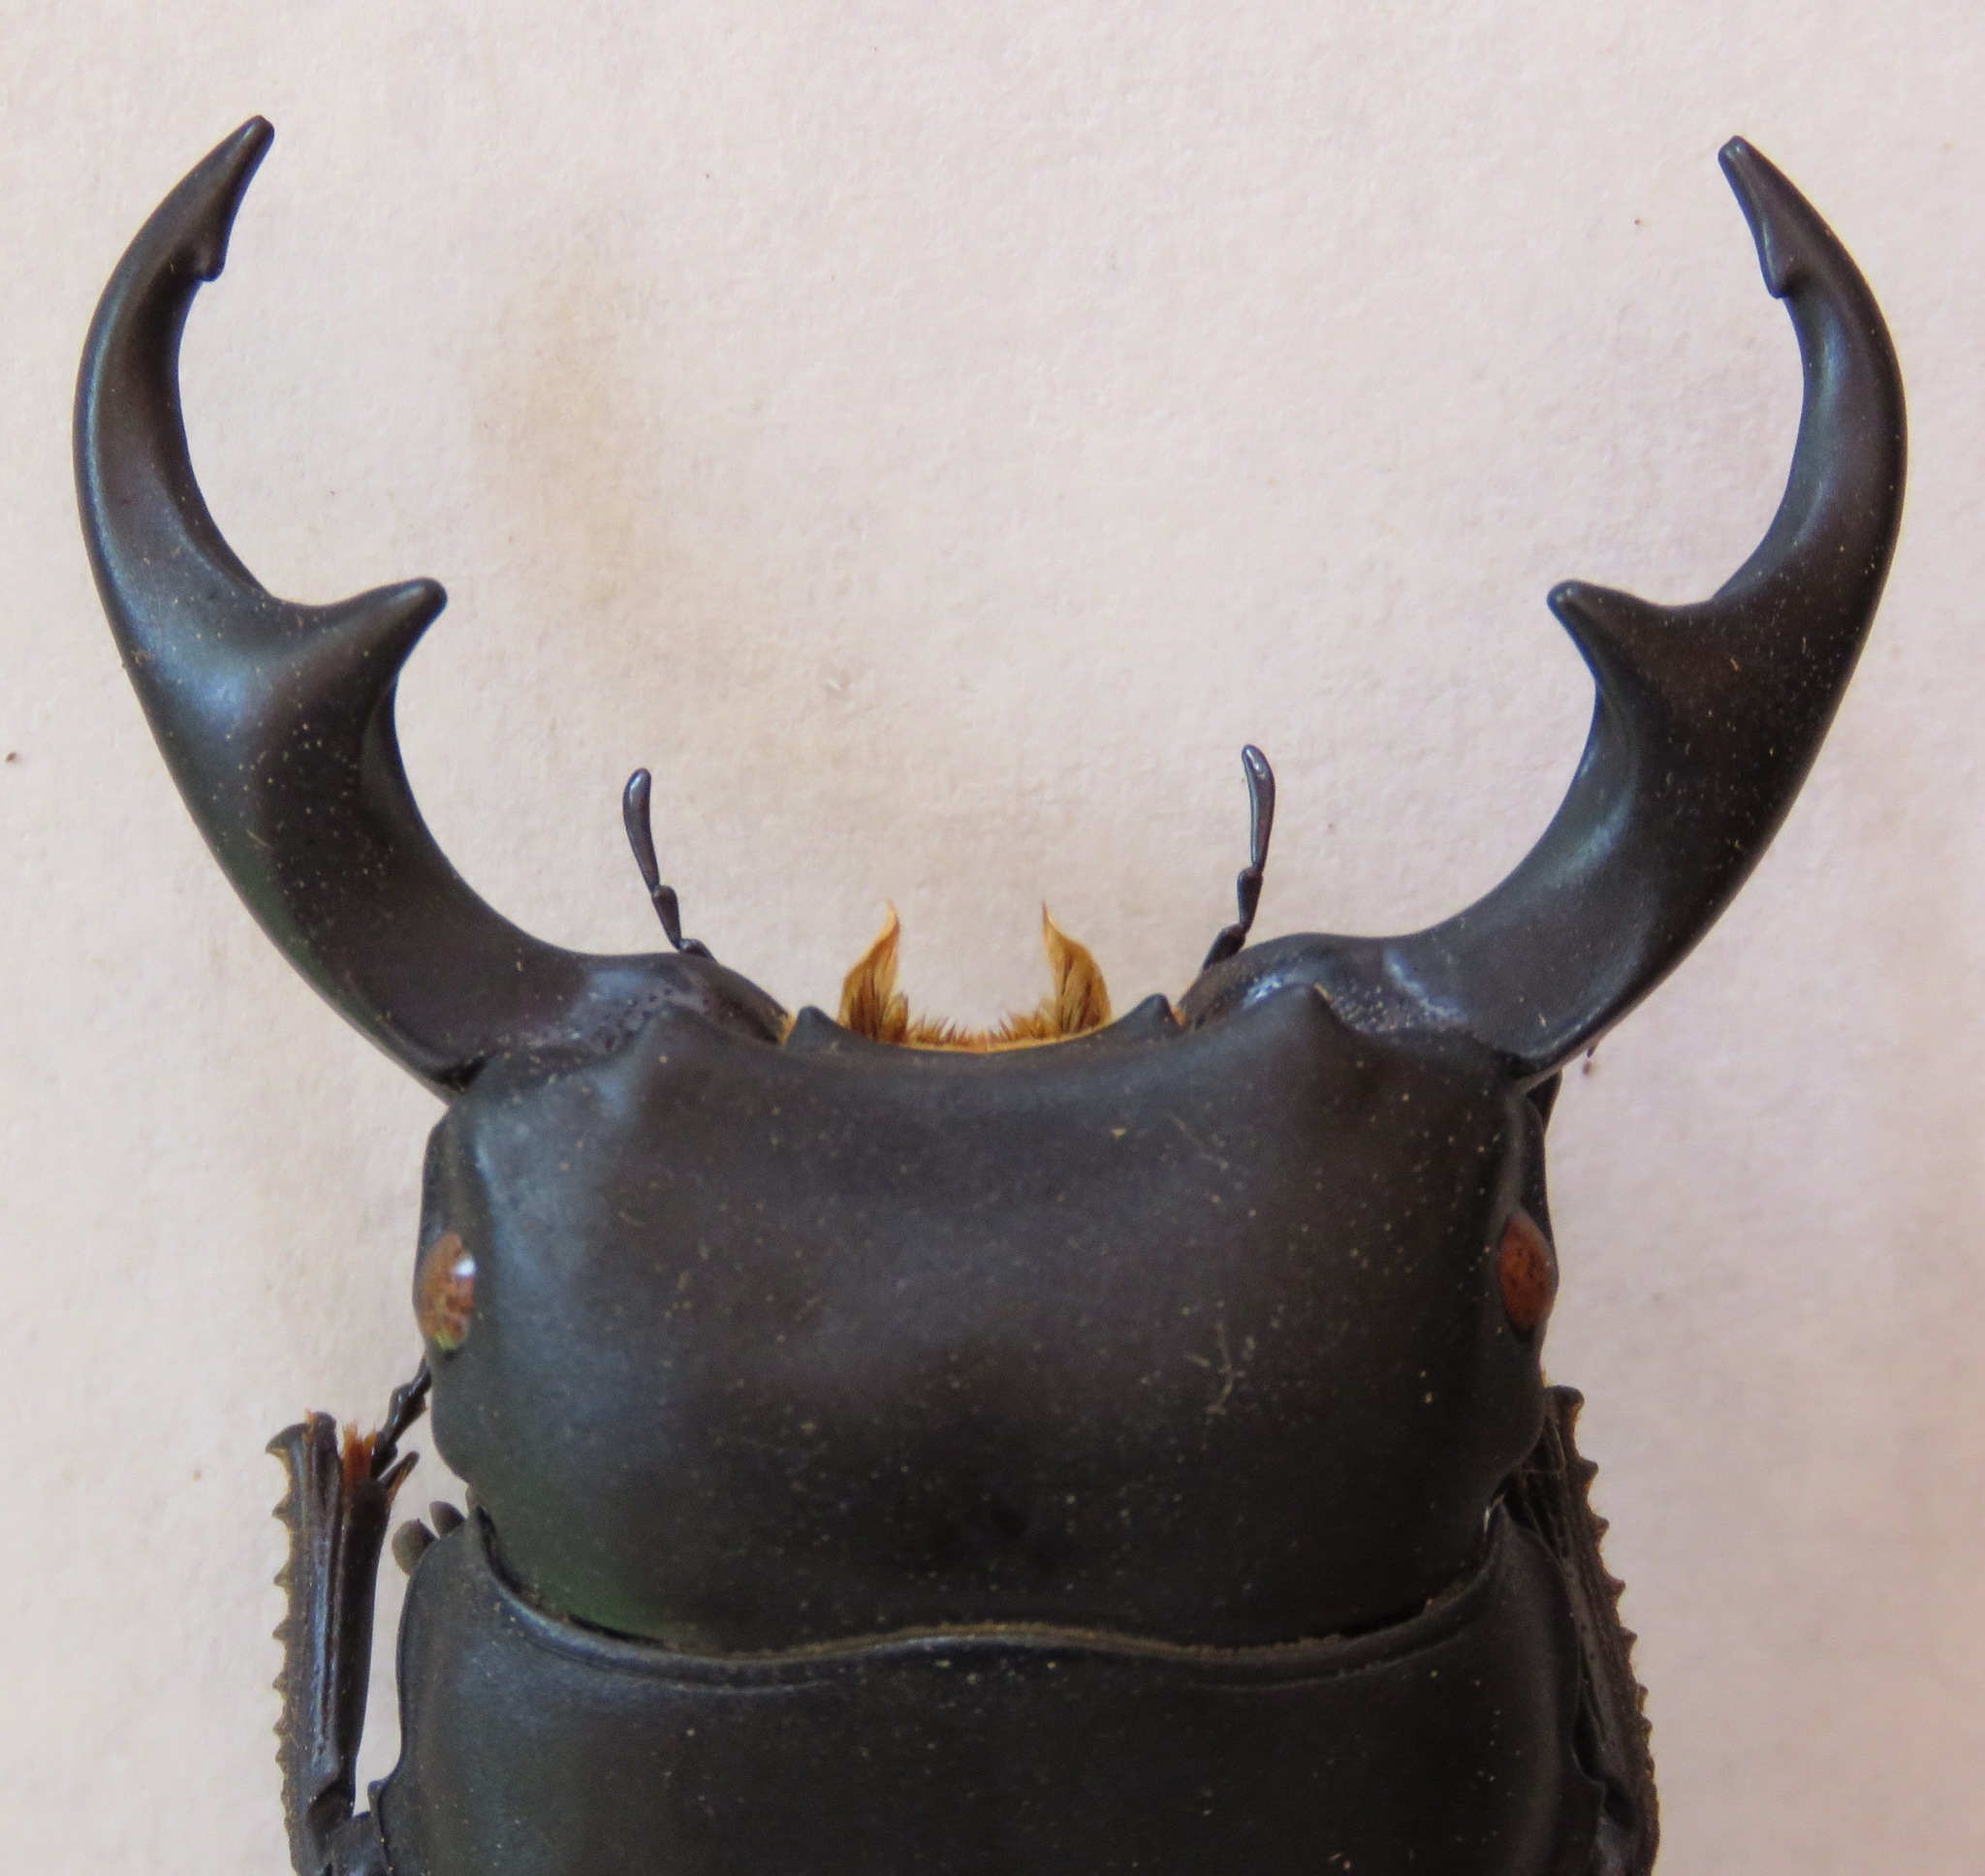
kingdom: Animalia
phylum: Arthropoda
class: Insecta
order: Coleoptera
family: Lucanidae
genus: Dorcus
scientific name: Dorcus ritsemae
